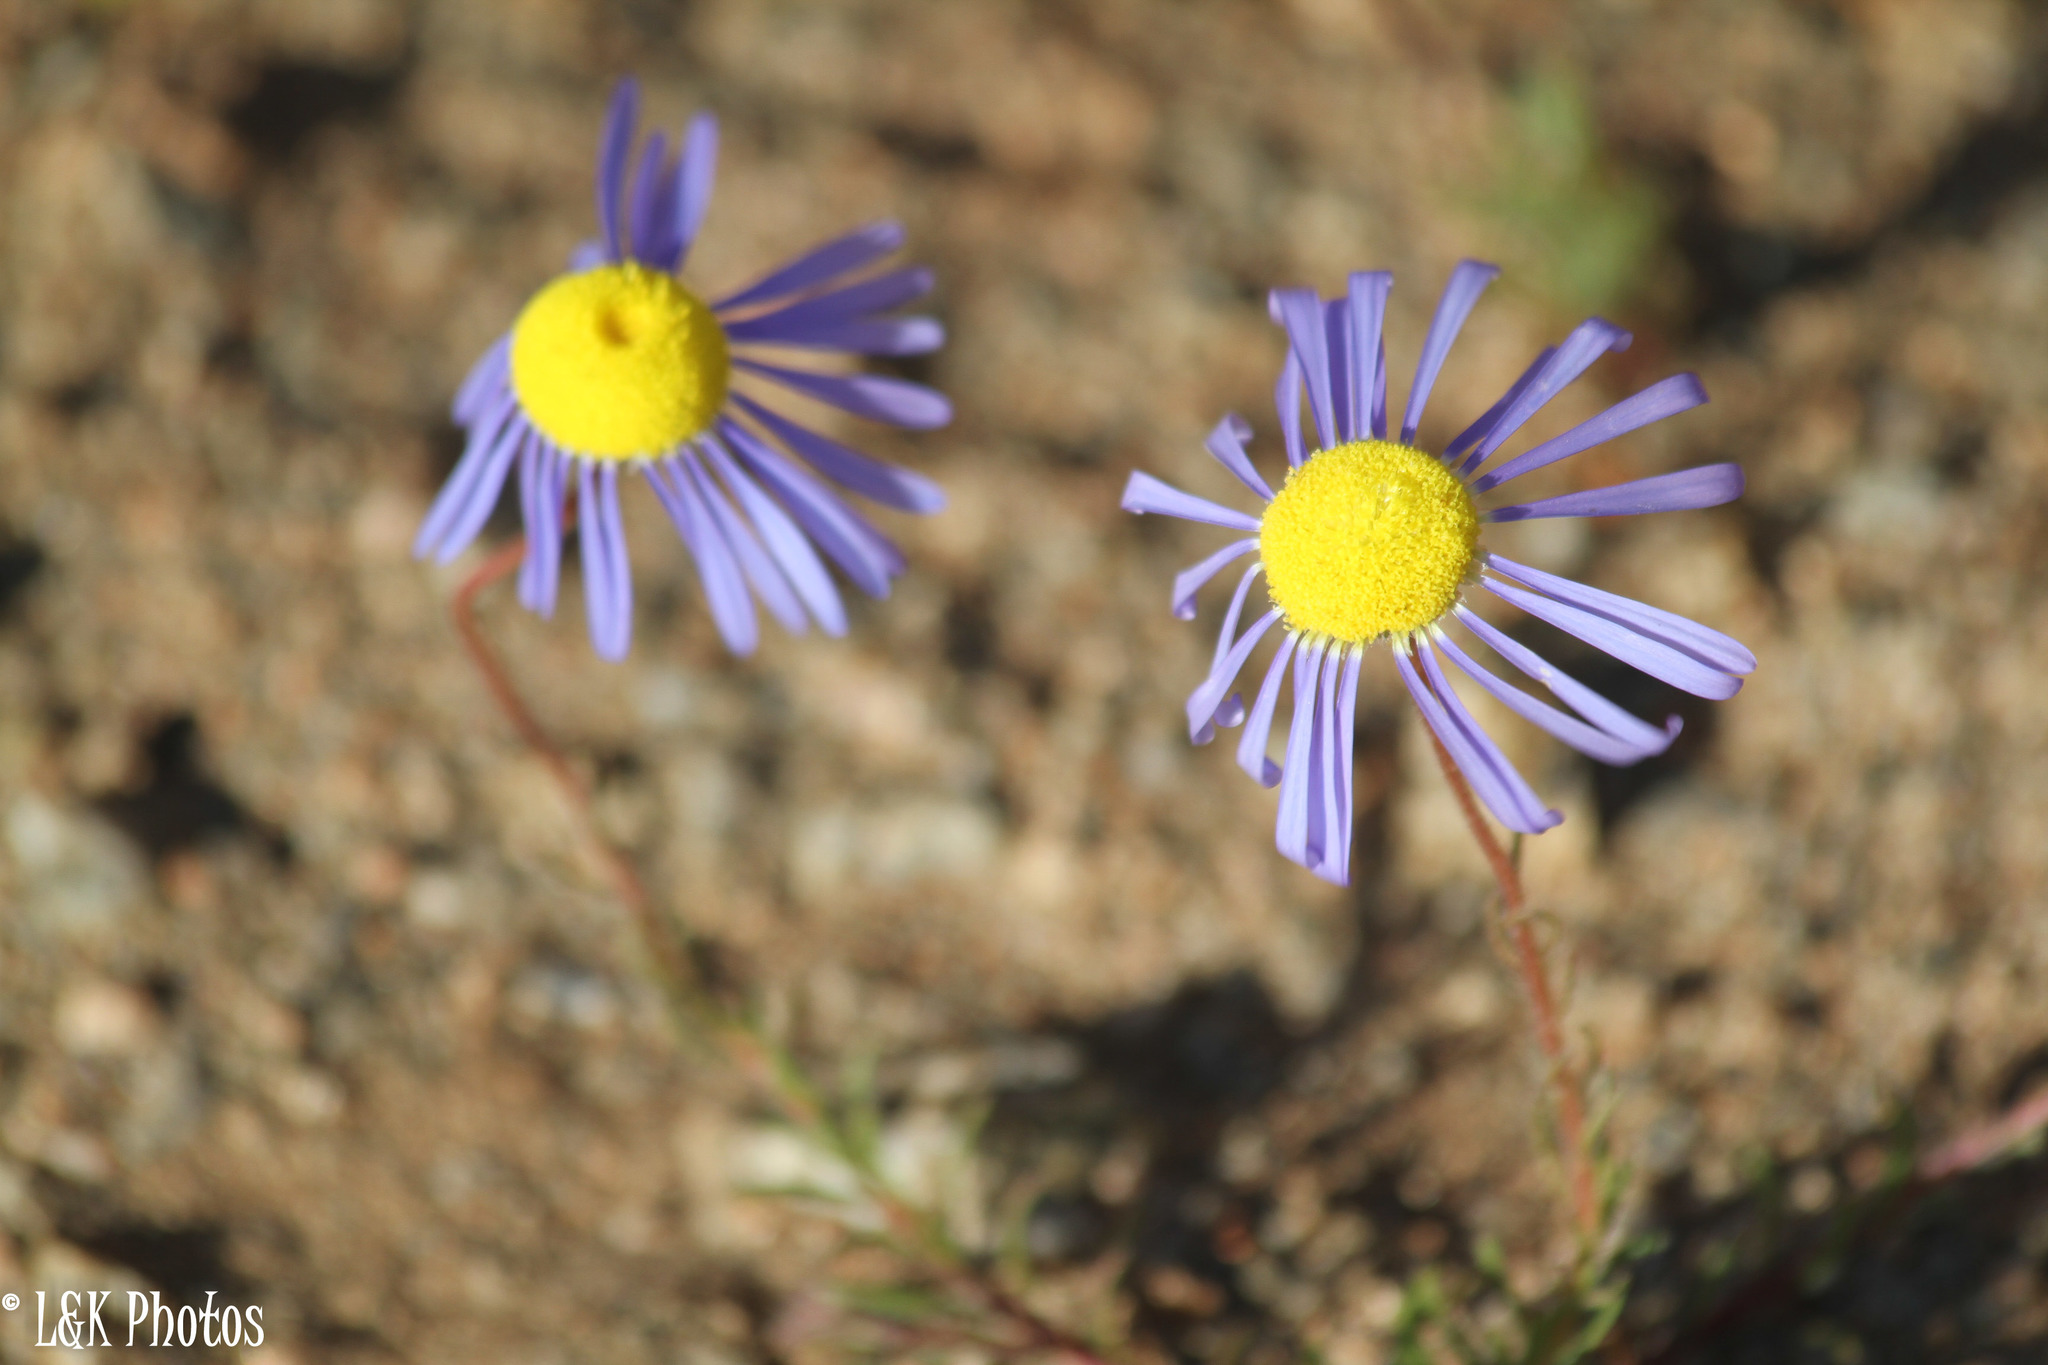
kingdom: Plantae
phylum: Tracheophyta
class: Magnoliopsida
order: Asterales
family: Asteraceae
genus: Felicia
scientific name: Felicia australia
